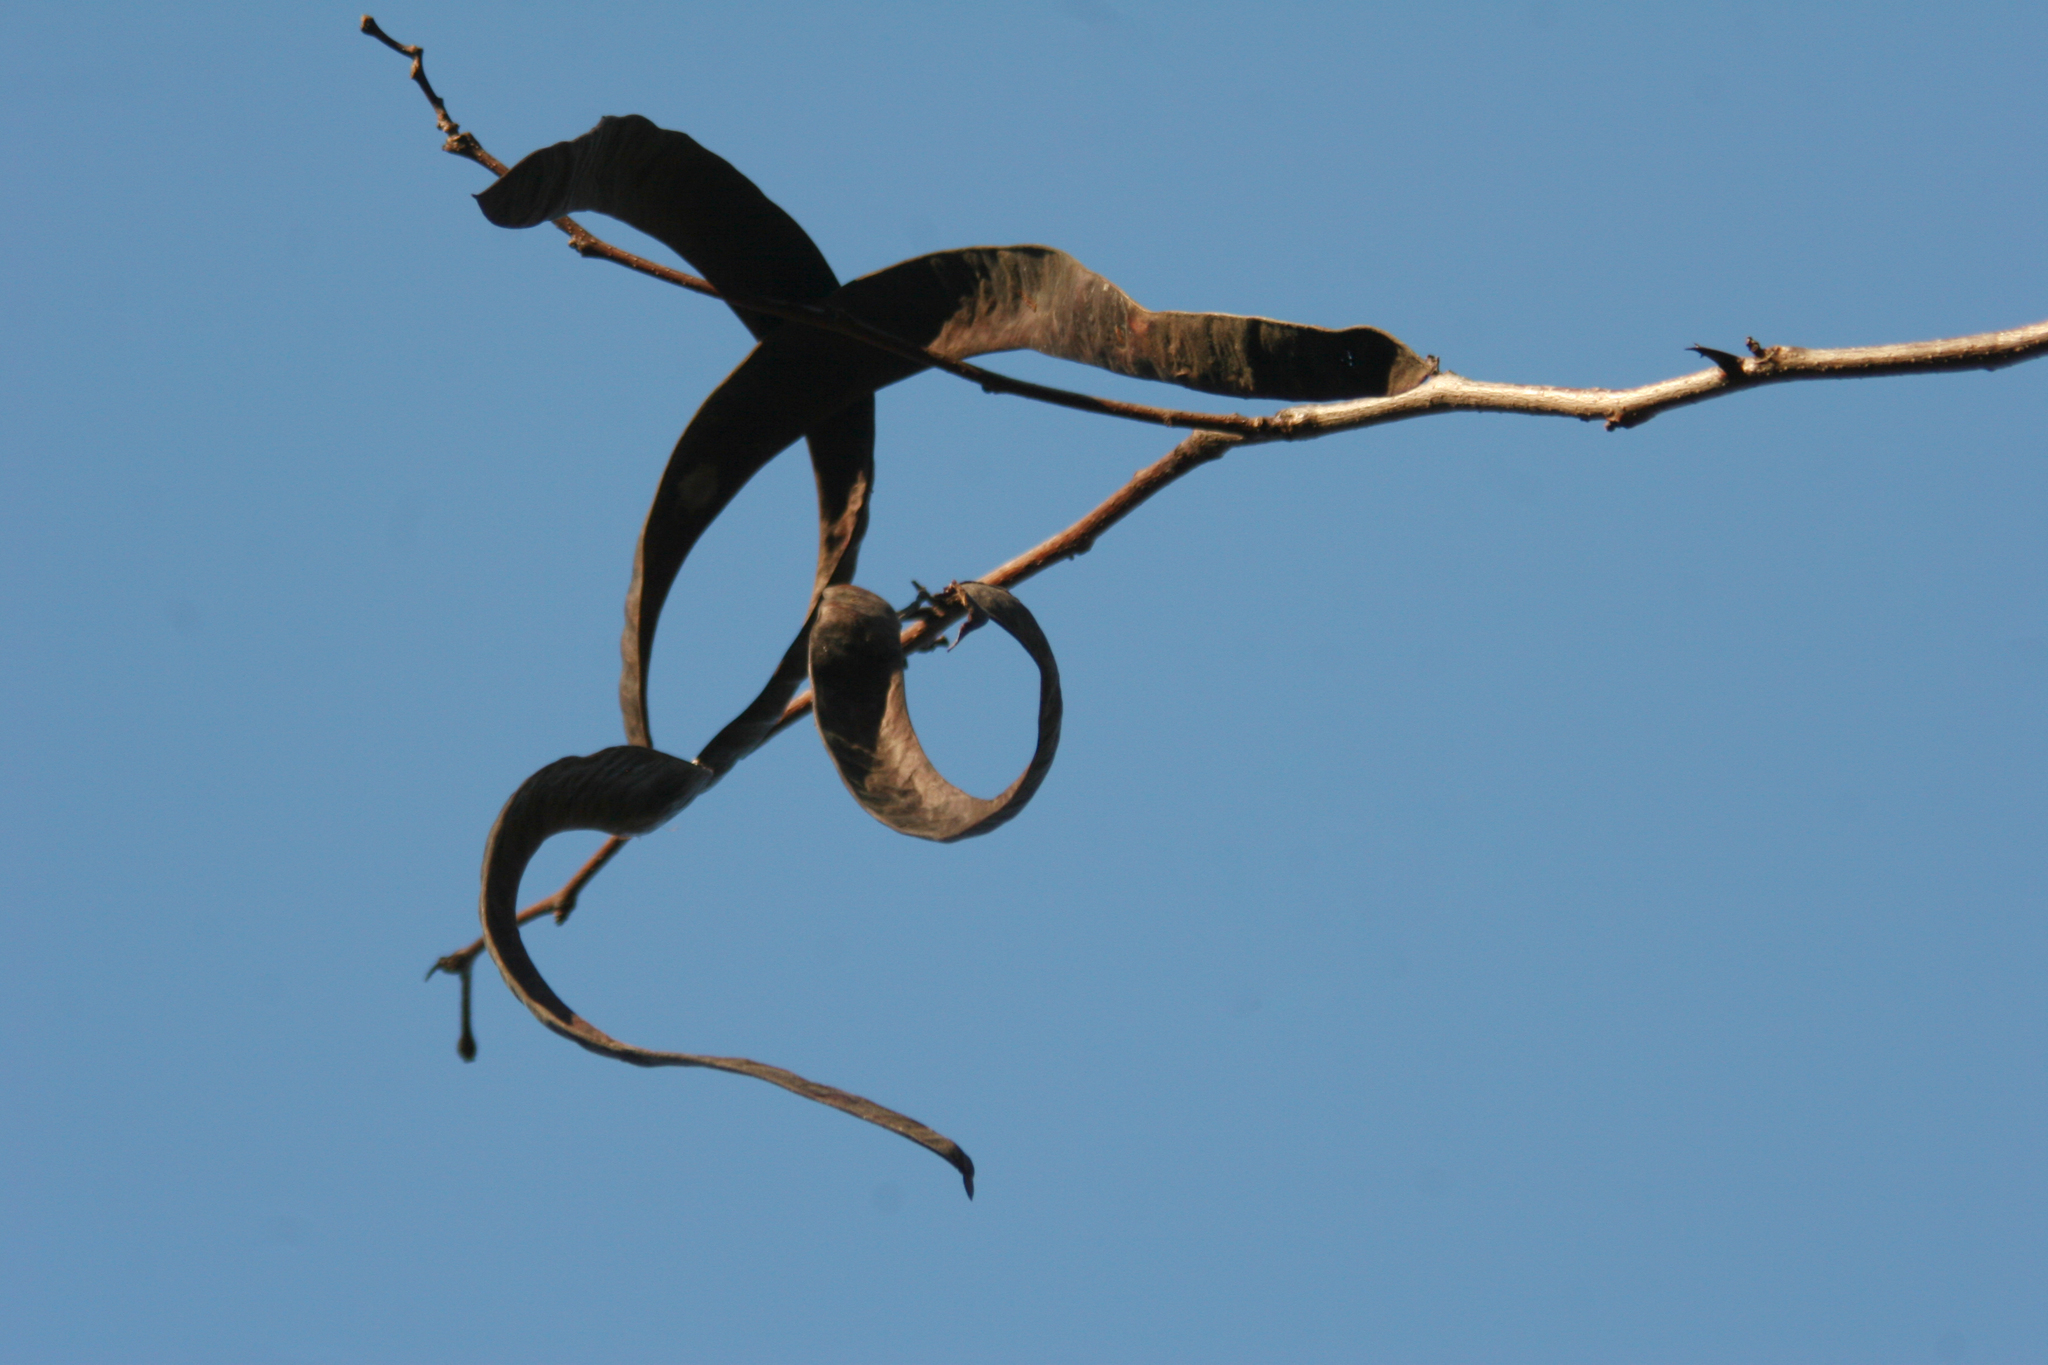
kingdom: Plantae
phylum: Tracheophyta
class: Magnoliopsida
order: Fabales
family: Fabaceae
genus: Gleditsia
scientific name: Gleditsia triacanthos
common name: Common honeylocust
